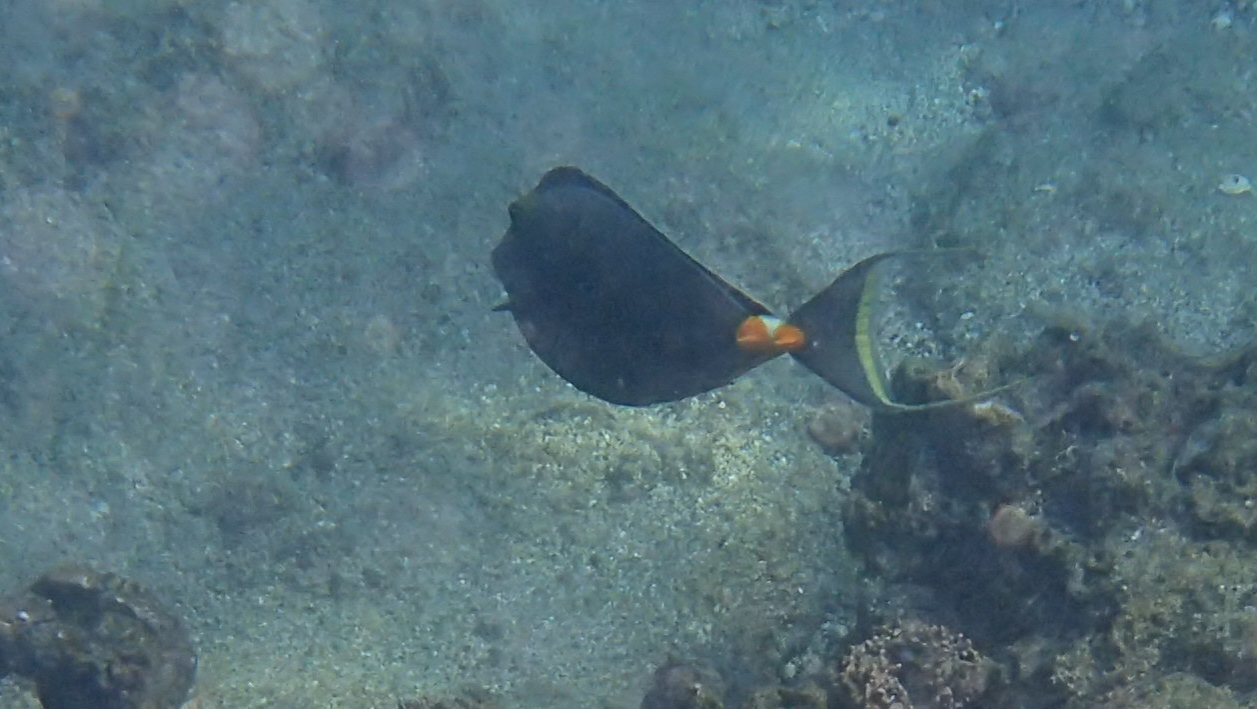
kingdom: Animalia
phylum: Chordata
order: Perciformes
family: Acanthuridae
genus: Naso
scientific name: Naso lituratus
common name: Orangespine unicornfish
